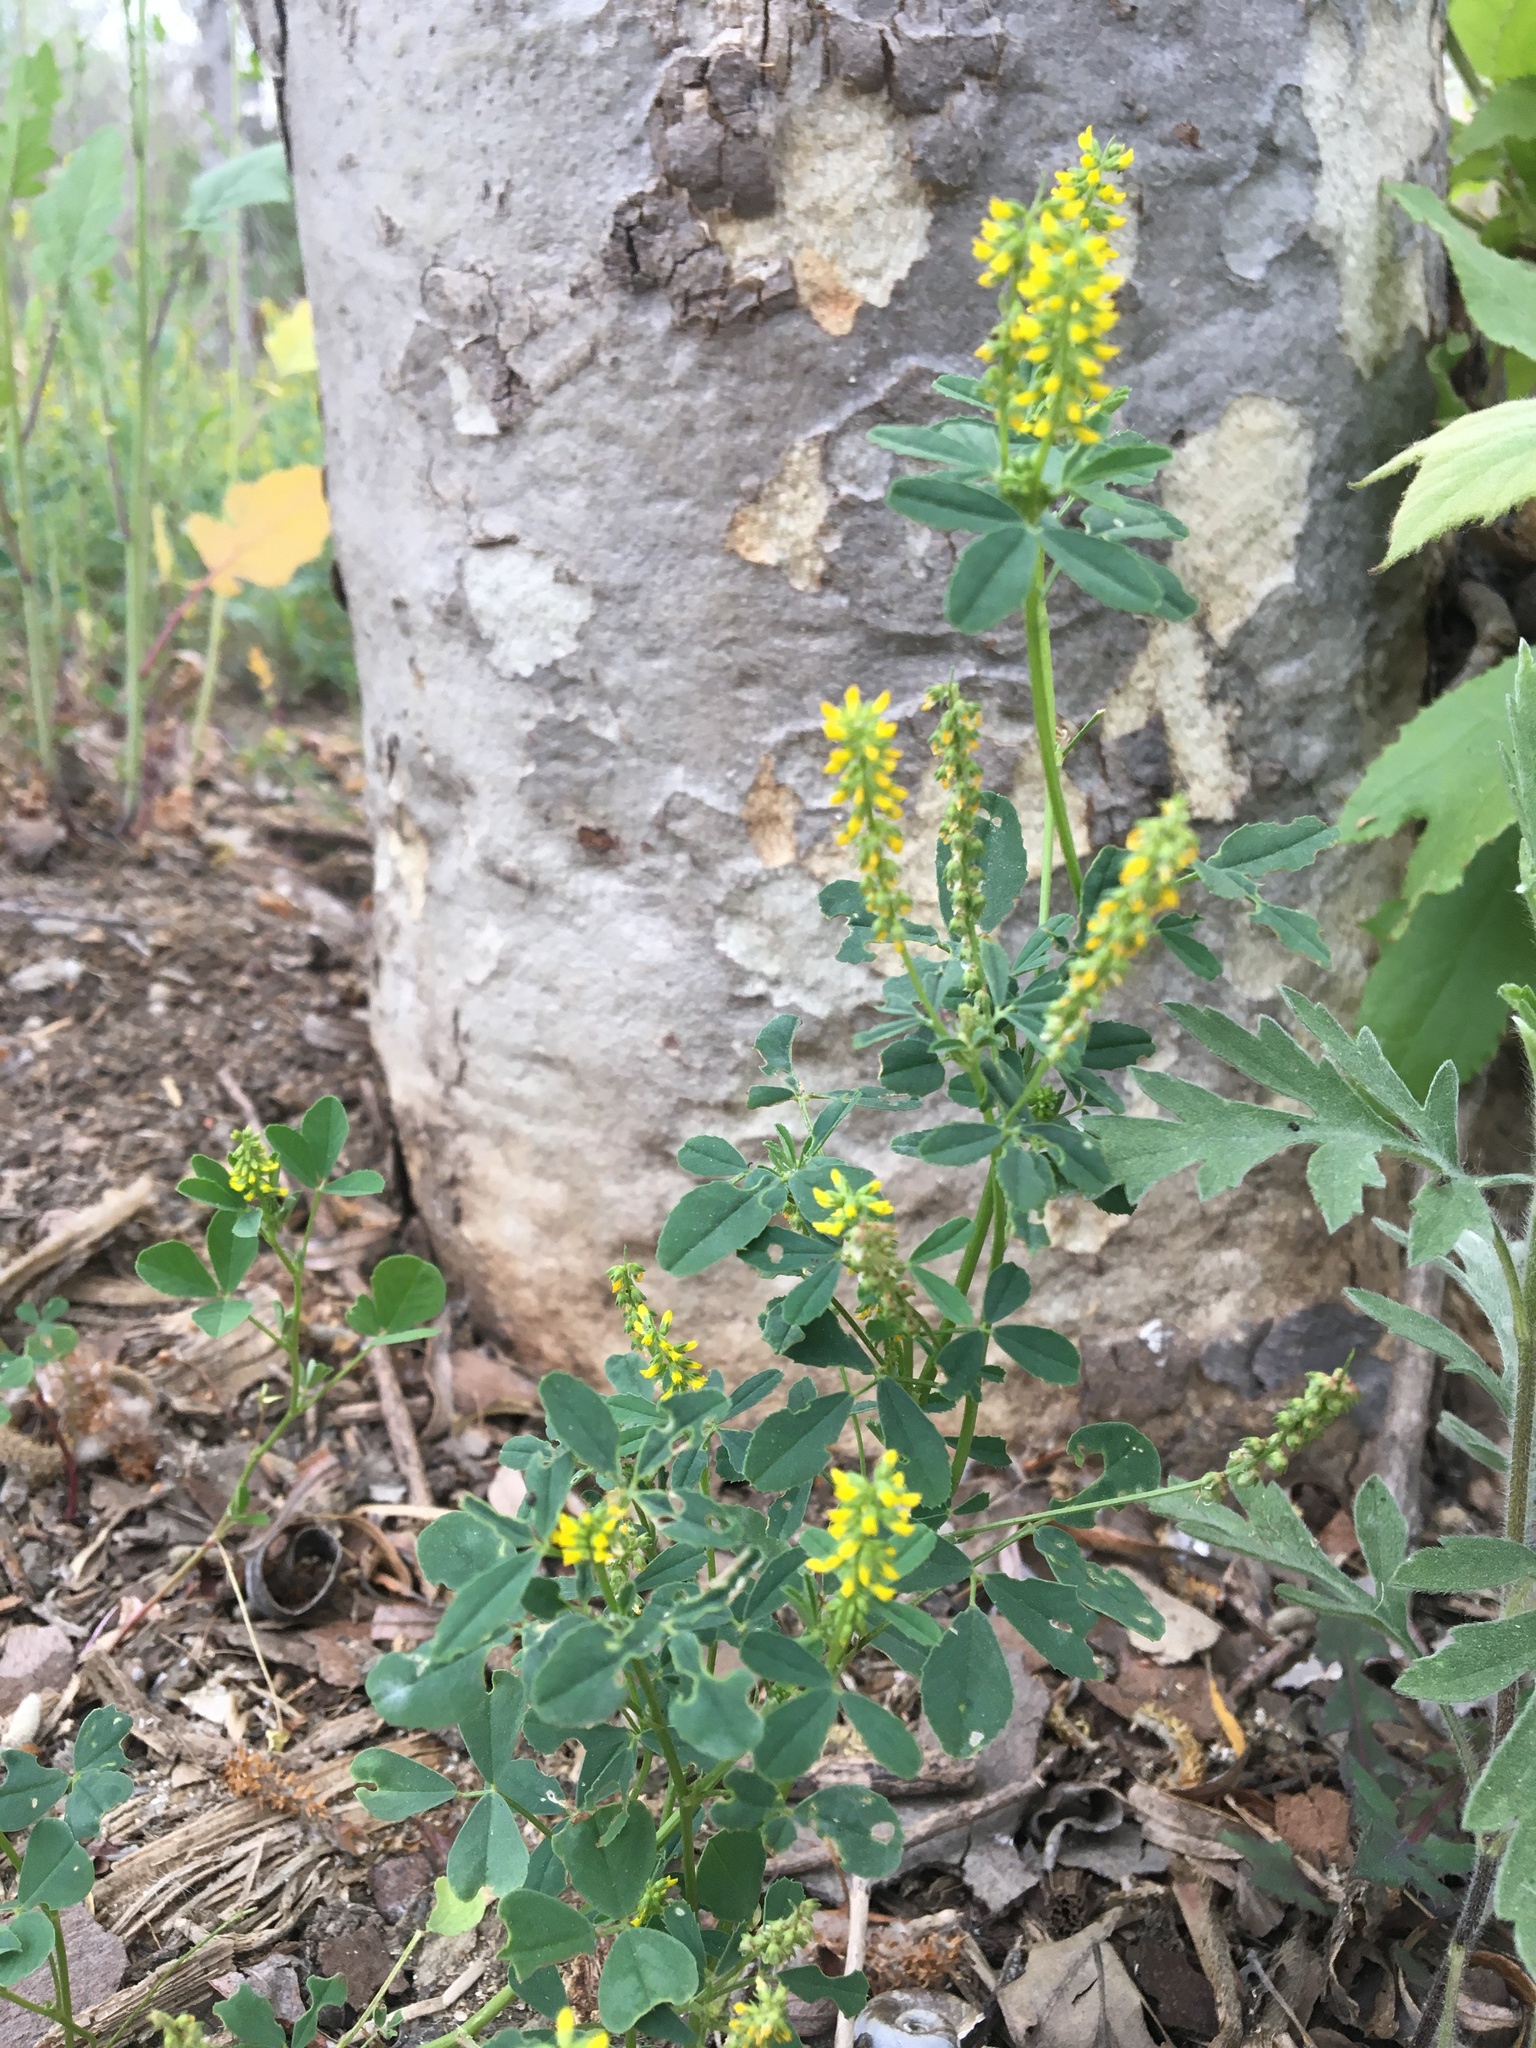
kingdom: Plantae
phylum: Tracheophyta
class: Magnoliopsida
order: Fabales
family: Fabaceae
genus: Melilotus
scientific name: Melilotus indicus
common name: Small melilot
